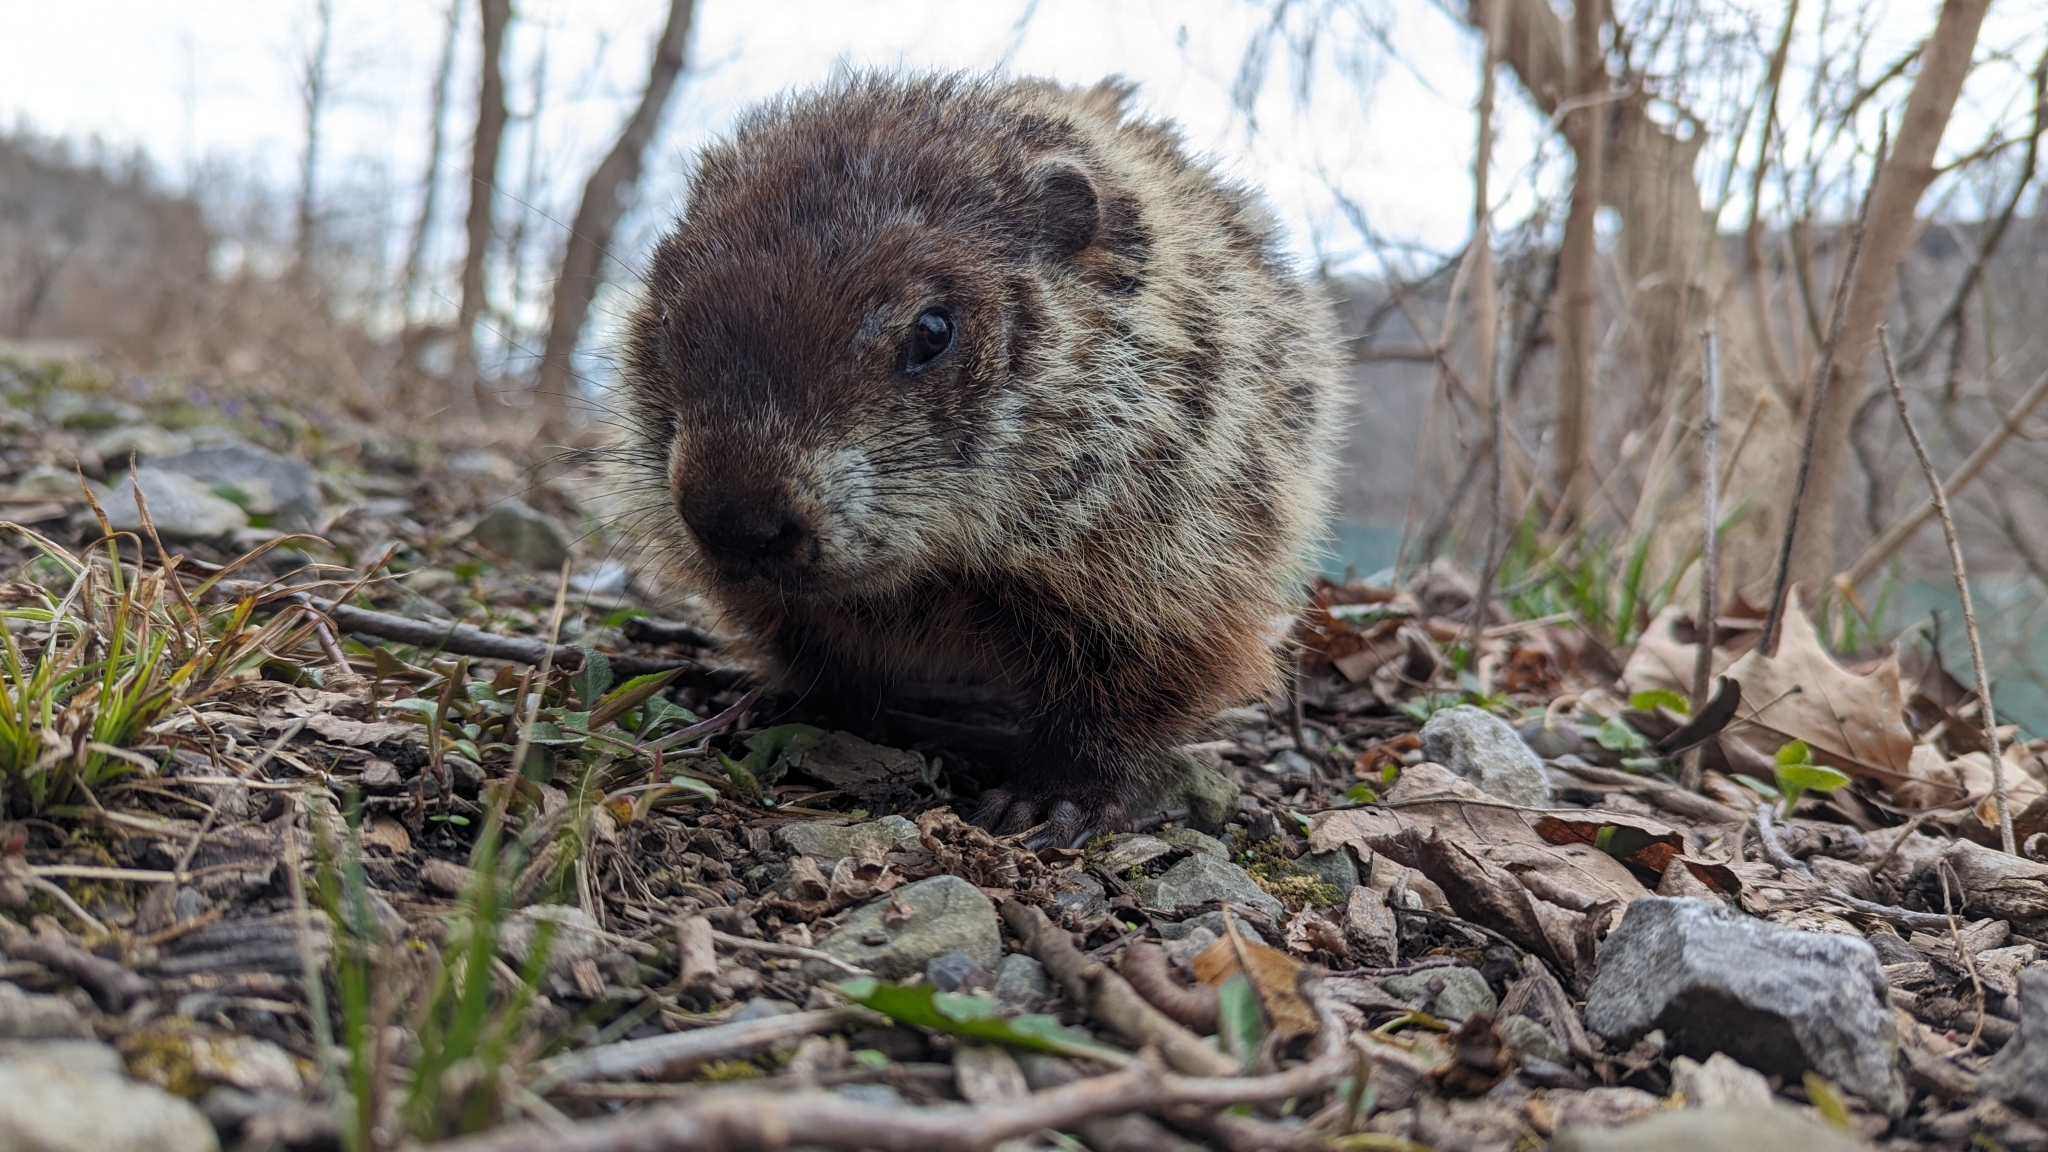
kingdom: Animalia
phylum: Chordata
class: Mammalia
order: Rodentia
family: Sciuridae
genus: Marmota
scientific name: Marmota monax
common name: Groundhog
